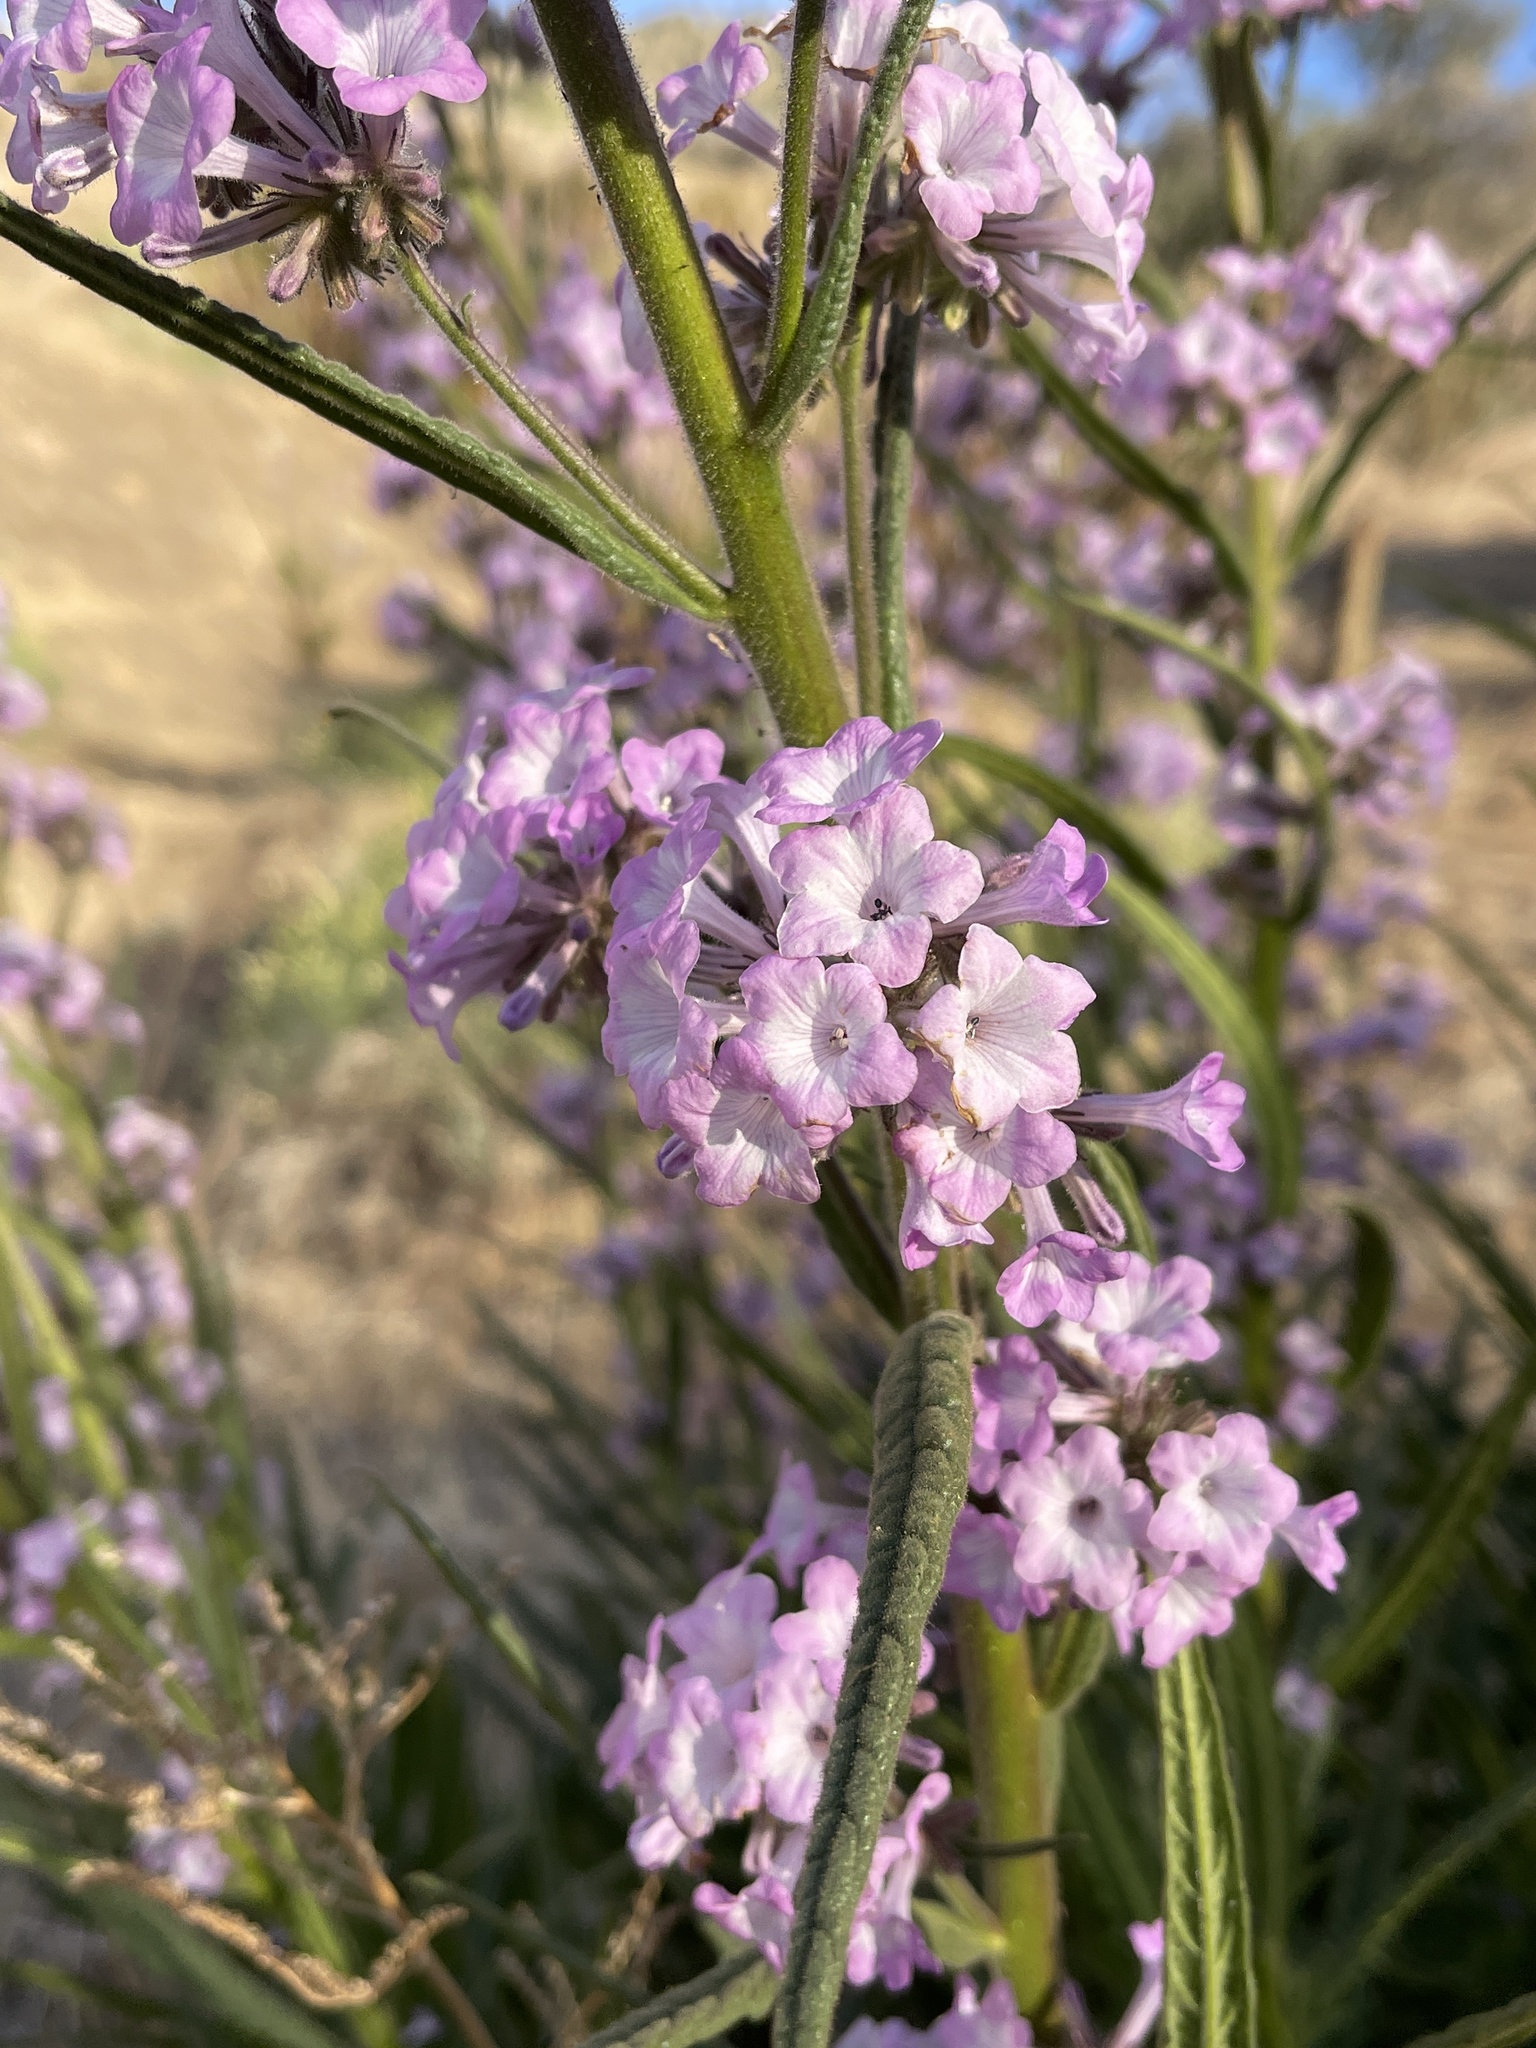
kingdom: Plantae
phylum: Tracheophyta
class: Magnoliopsida
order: Boraginales
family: Namaceae
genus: Turricula
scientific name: Turricula parryi
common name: Poodle-dog-bush
